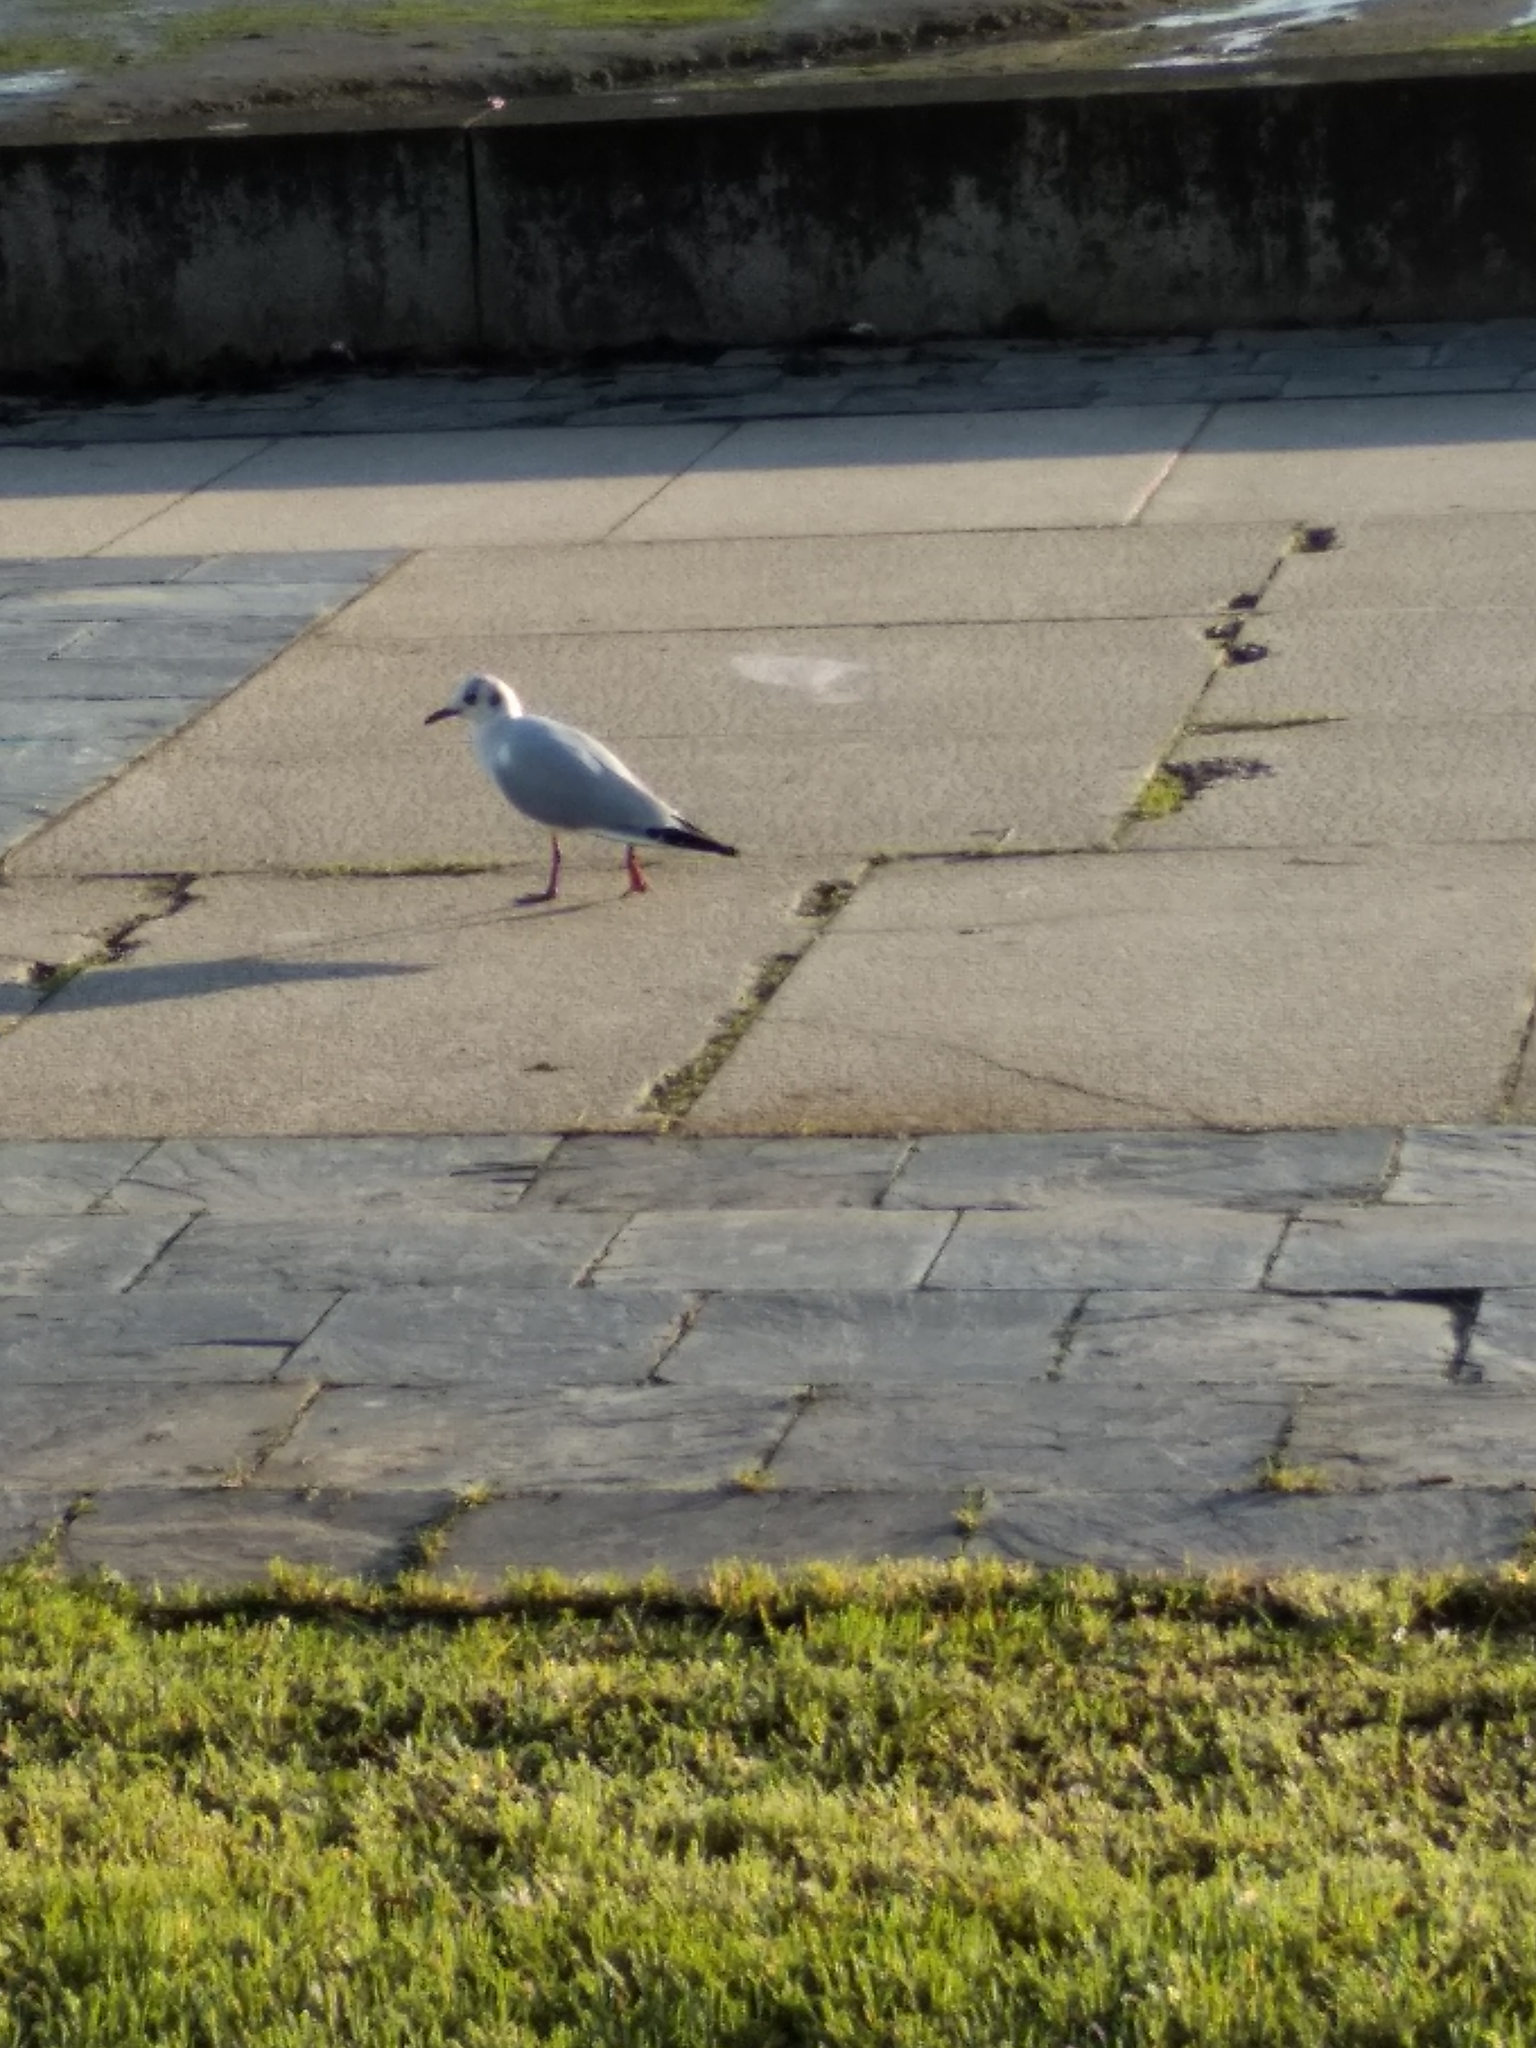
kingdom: Animalia
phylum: Chordata
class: Aves
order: Charadriiformes
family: Laridae
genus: Chroicocephalus
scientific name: Chroicocephalus ridibundus
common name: Black-headed gull
